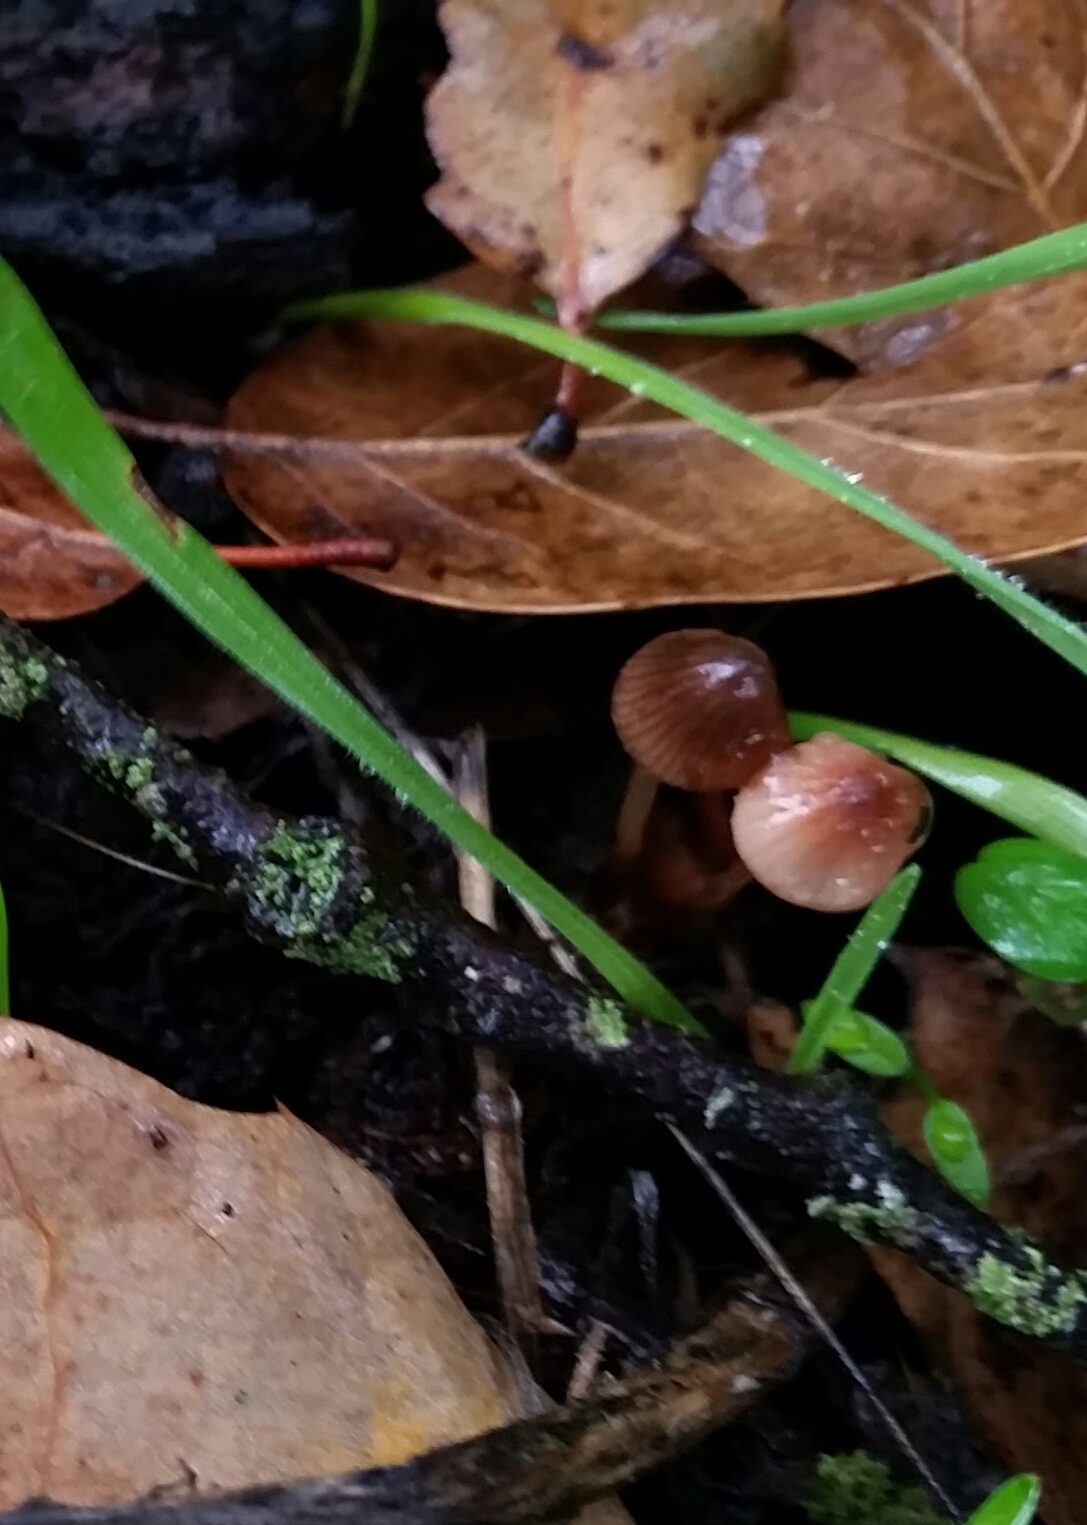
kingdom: Fungi
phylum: Basidiomycota
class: Agaricomycetes
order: Agaricales
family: Mycenaceae
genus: Mycena
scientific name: Mycena
